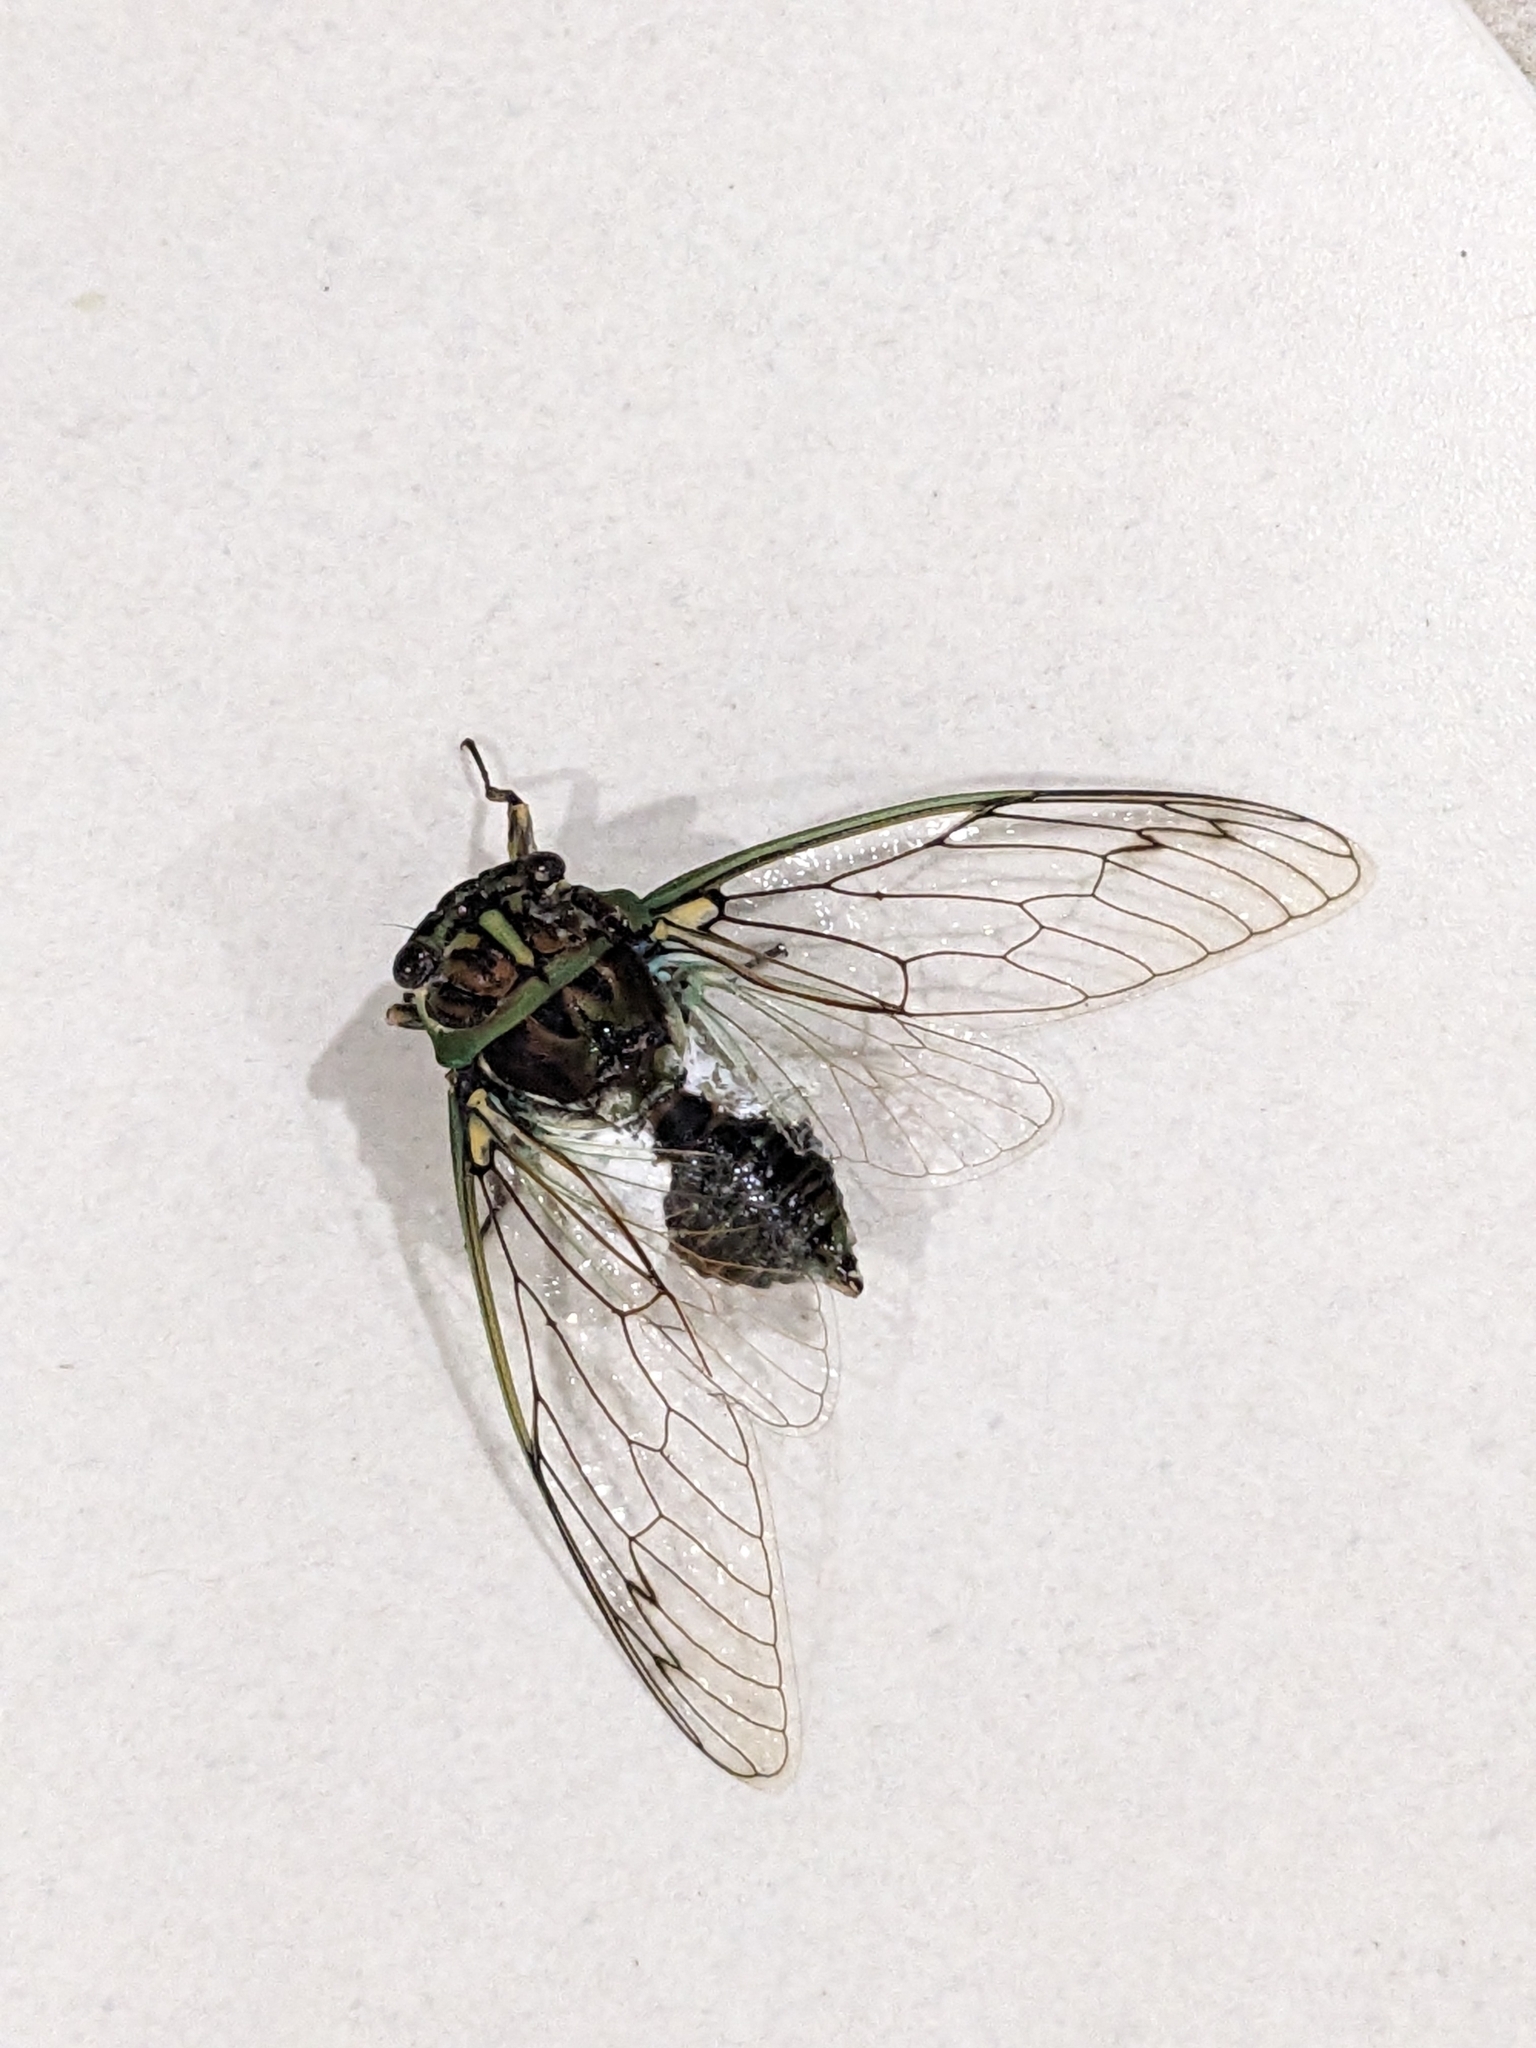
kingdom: Animalia
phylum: Arthropoda
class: Insecta
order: Hemiptera
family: Cicadidae
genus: Arunta
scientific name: Arunta perulata
